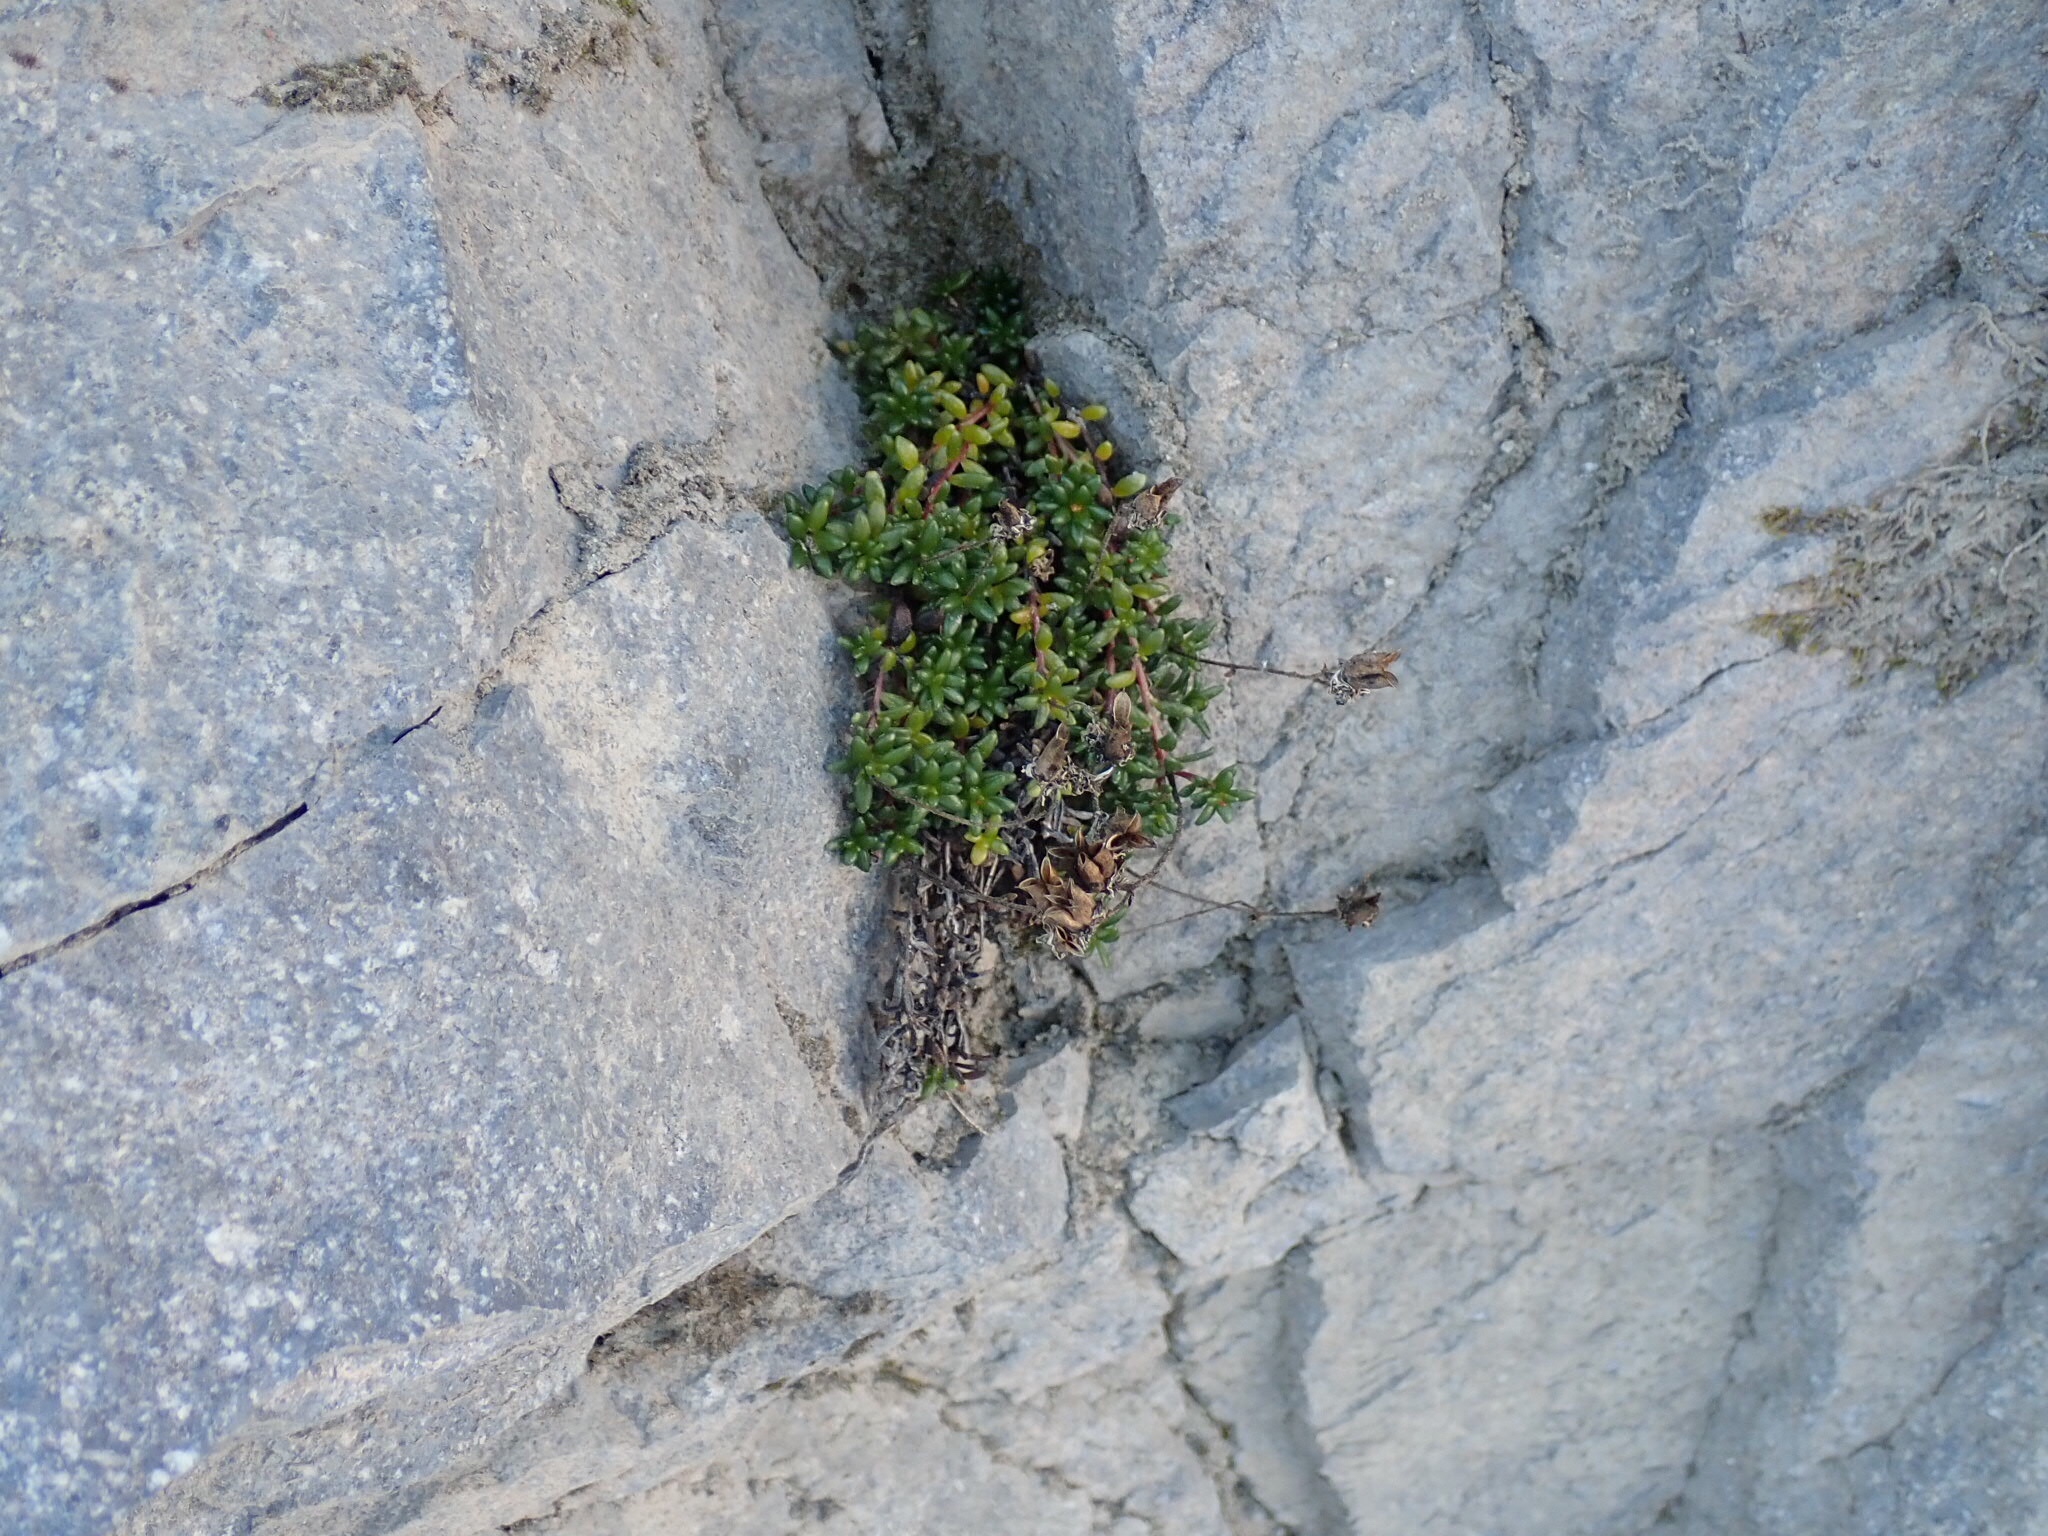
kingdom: Plantae
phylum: Tracheophyta
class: Magnoliopsida
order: Saxifragales
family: Saxifragaceae
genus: Micranthes
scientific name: Micranthes tolmiei
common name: Tolmie's saxifrage
